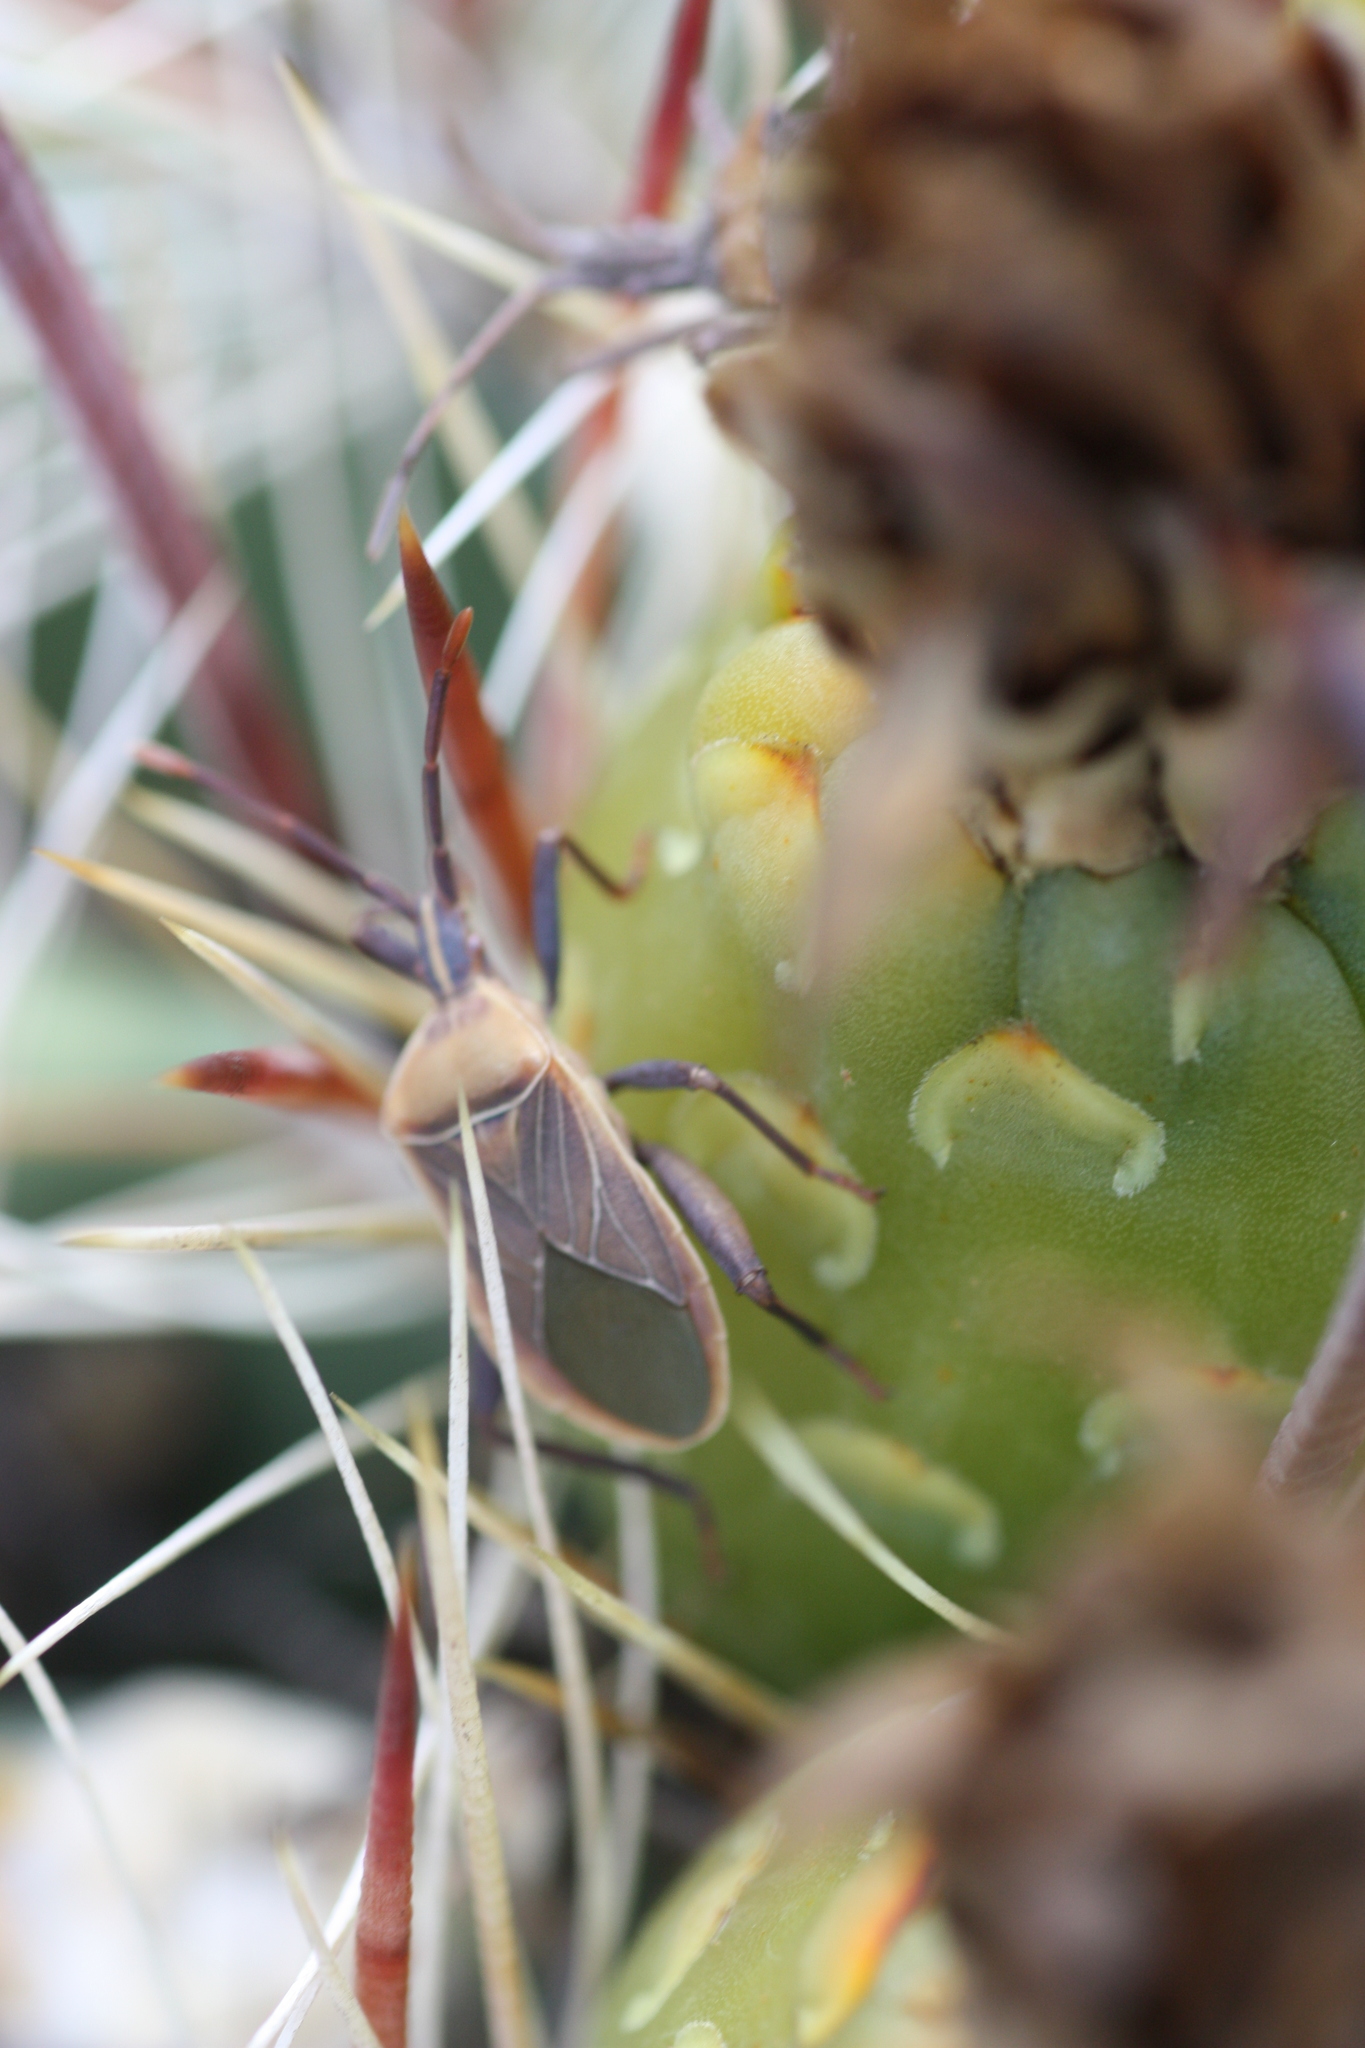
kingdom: Animalia
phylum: Arthropoda
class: Insecta
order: Hemiptera
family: Coreidae
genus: Chelinidea
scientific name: Chelinidea vittiger
